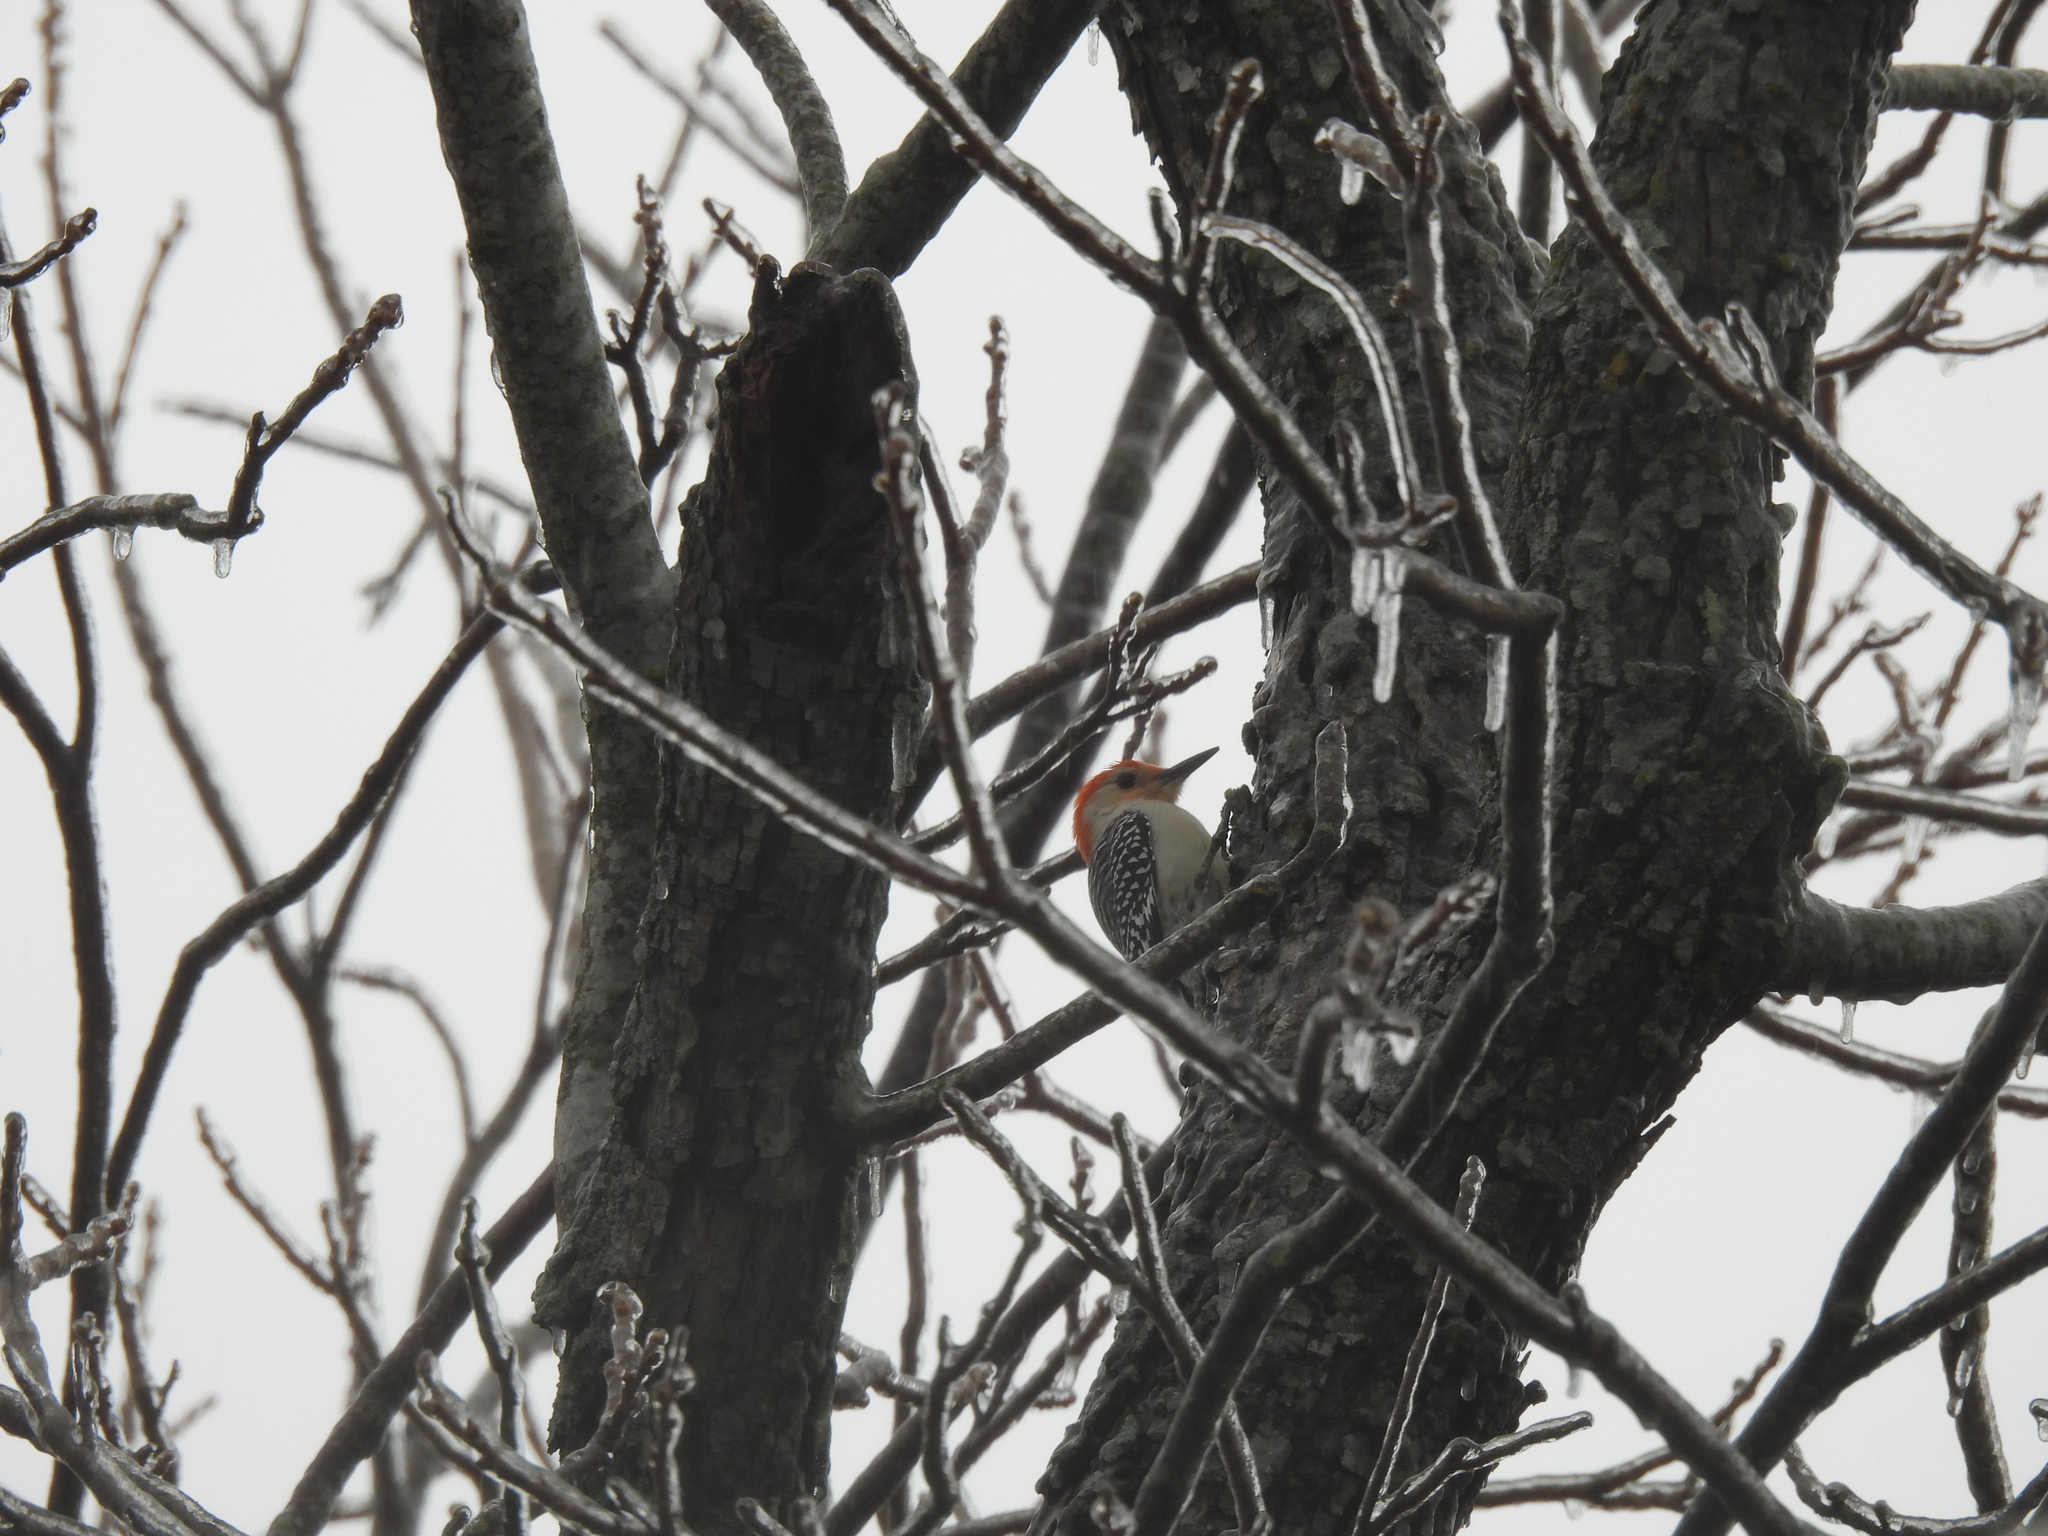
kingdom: Animalia
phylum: Chordata
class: Aves
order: Piciformes
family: Picidae
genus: Melanerpes
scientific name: Melanerpes carolinus
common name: Red-bellied woodpecker
